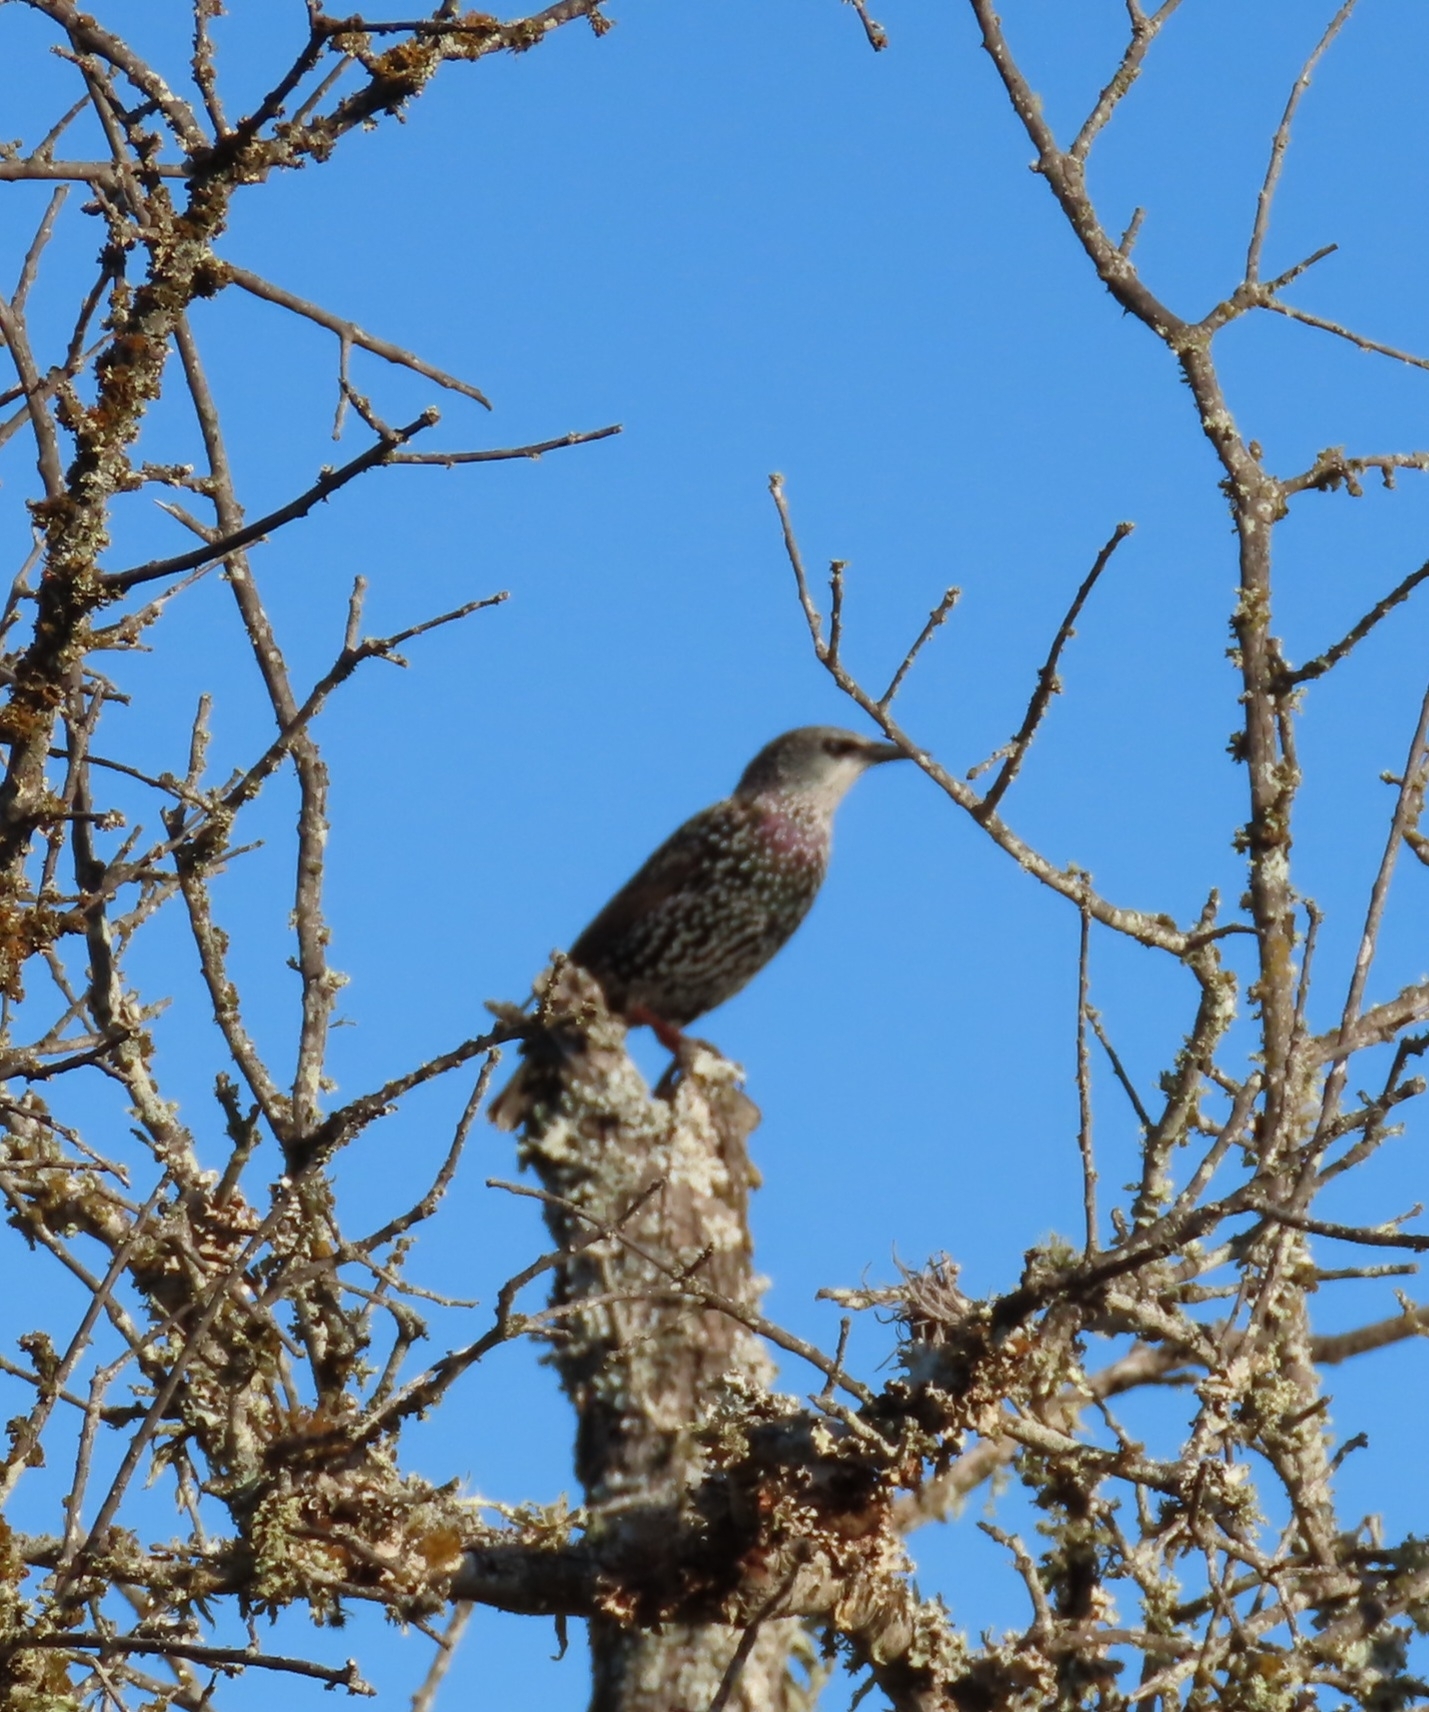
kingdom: Animalia
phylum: Chordata
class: Aves
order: Passeriformes
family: Sturnidae
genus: Sturnus
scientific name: Sturnus vulgaris
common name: Common starling
